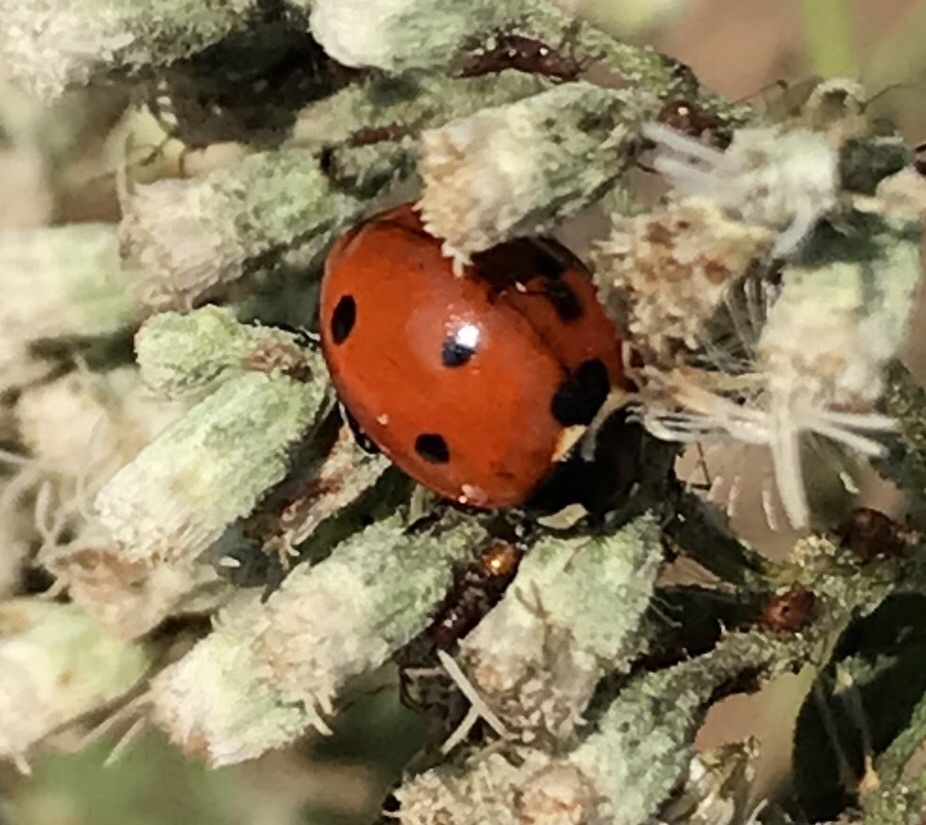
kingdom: Animalia
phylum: Arthropoda
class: Insecta
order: Coleoptera
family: Coccinellidae
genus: Coccinella
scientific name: Coccinella septempunctata
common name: Sevenspotted lady beetle
